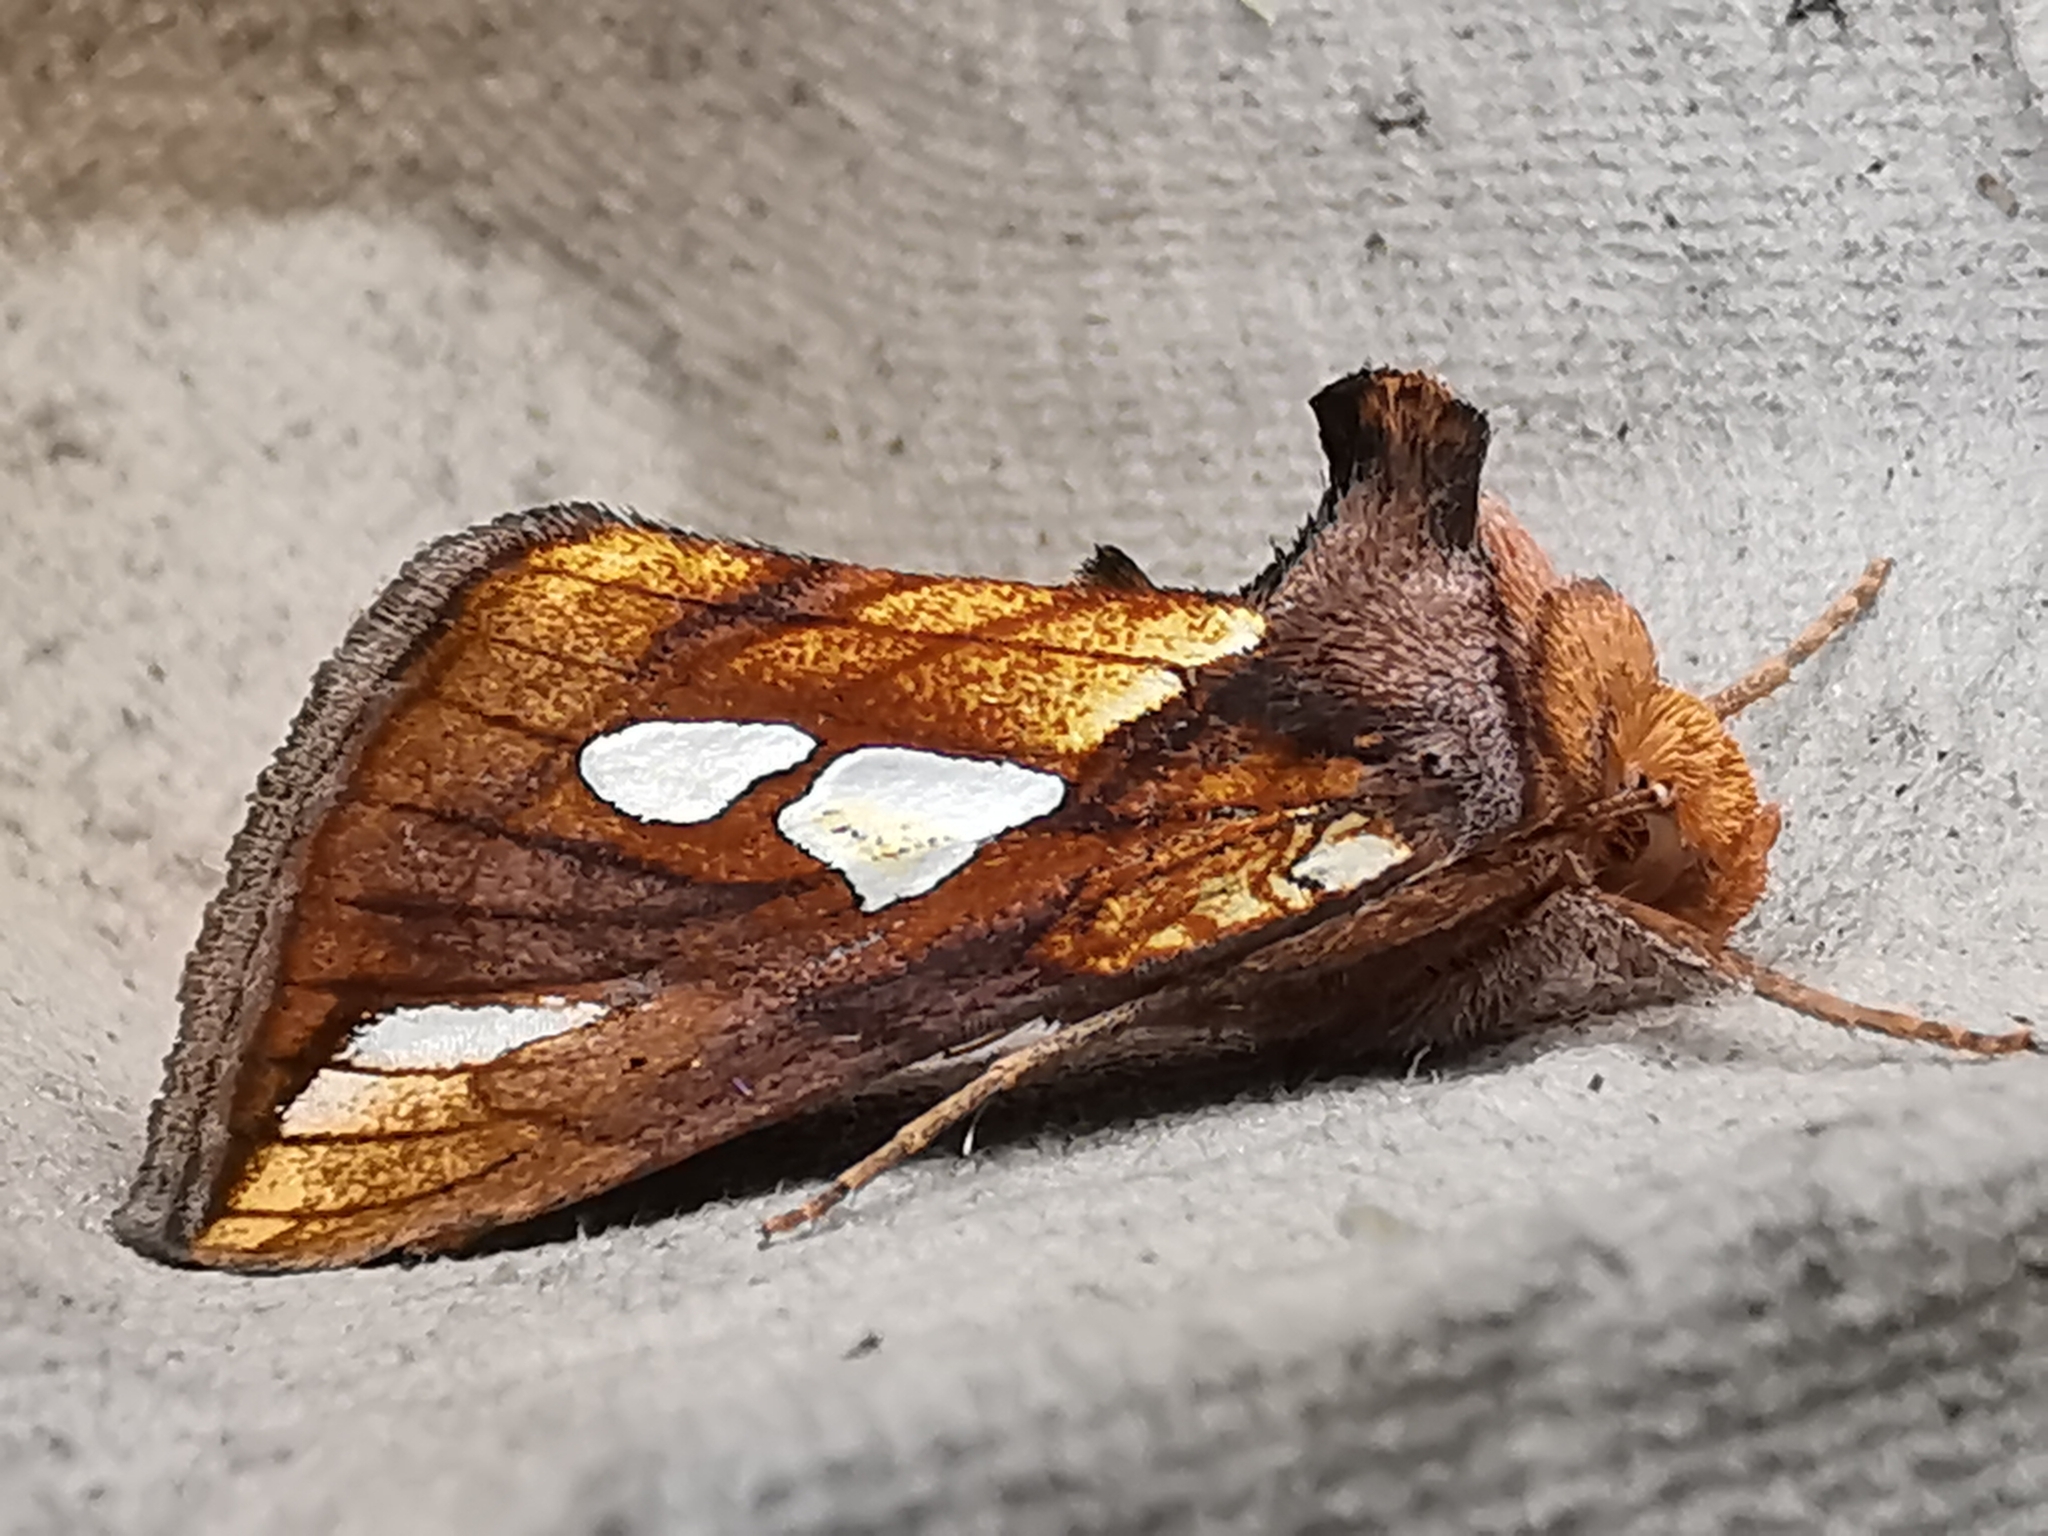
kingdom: Animalia
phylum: Arthropoda
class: Insecta
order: Lepidoptera
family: Noctuidae
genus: Plusia
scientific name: Plusia festucae
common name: Gold spot
